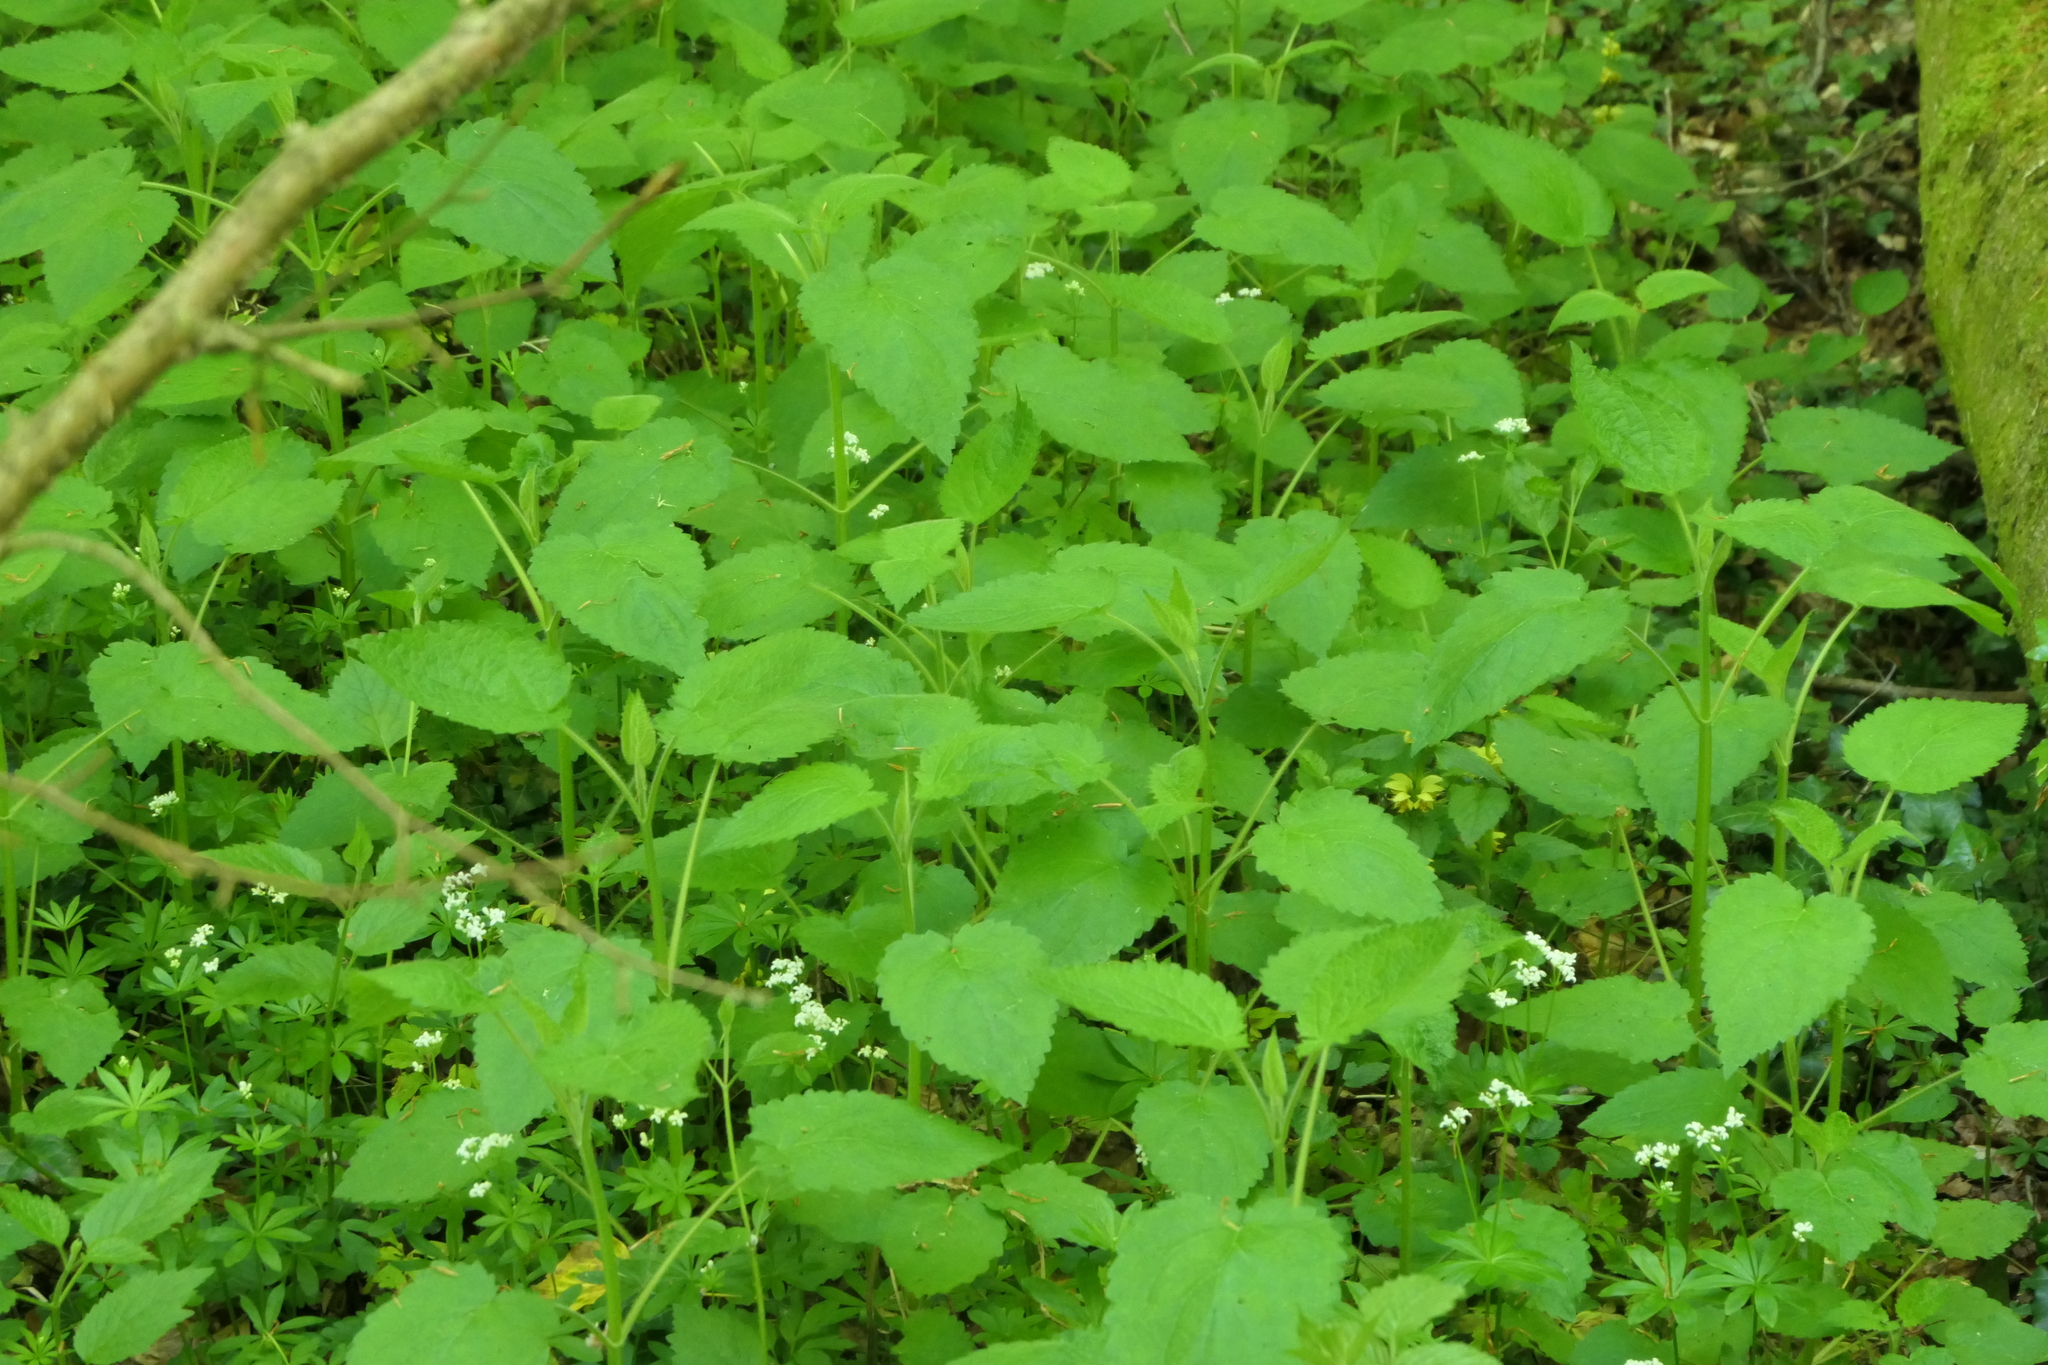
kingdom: Plantae
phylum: Tracheophyta
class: Magnoliopsida
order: Lamiales
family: Lamiaceae
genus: Stachys
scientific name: Stachys sylvatica
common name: Hedge woundwort
